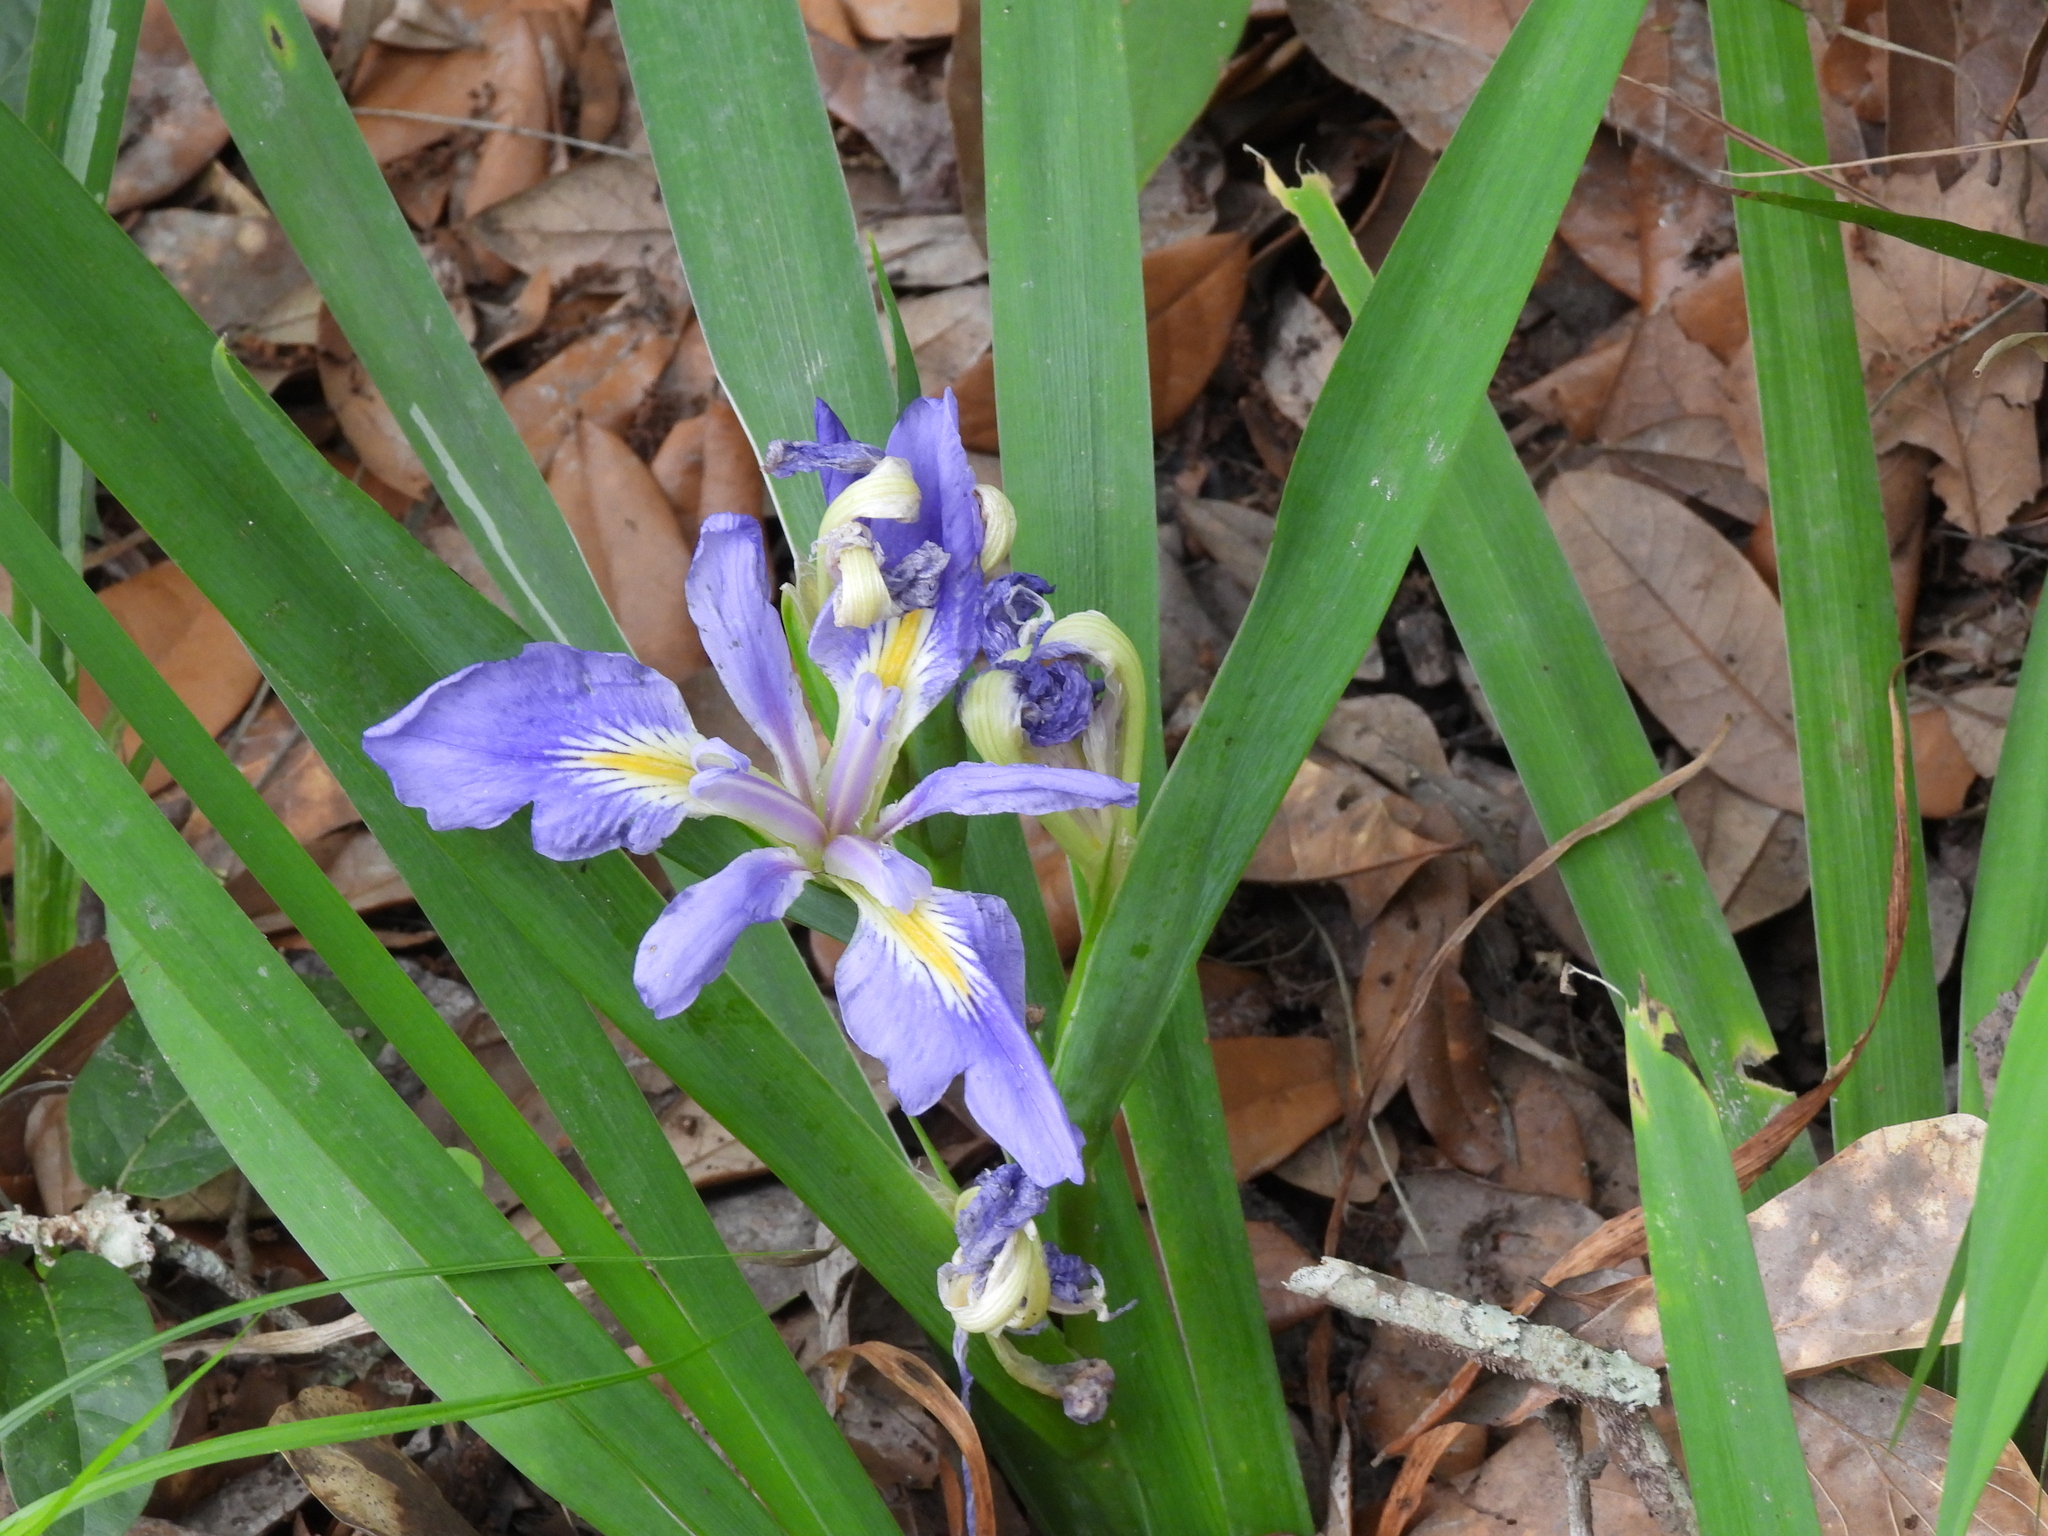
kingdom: Plantae
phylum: Tracheophyta
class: Liliopsida
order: Asparagales
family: Iridaceae
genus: Iris
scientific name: Iris brevicaulis
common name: Zigzag iris
